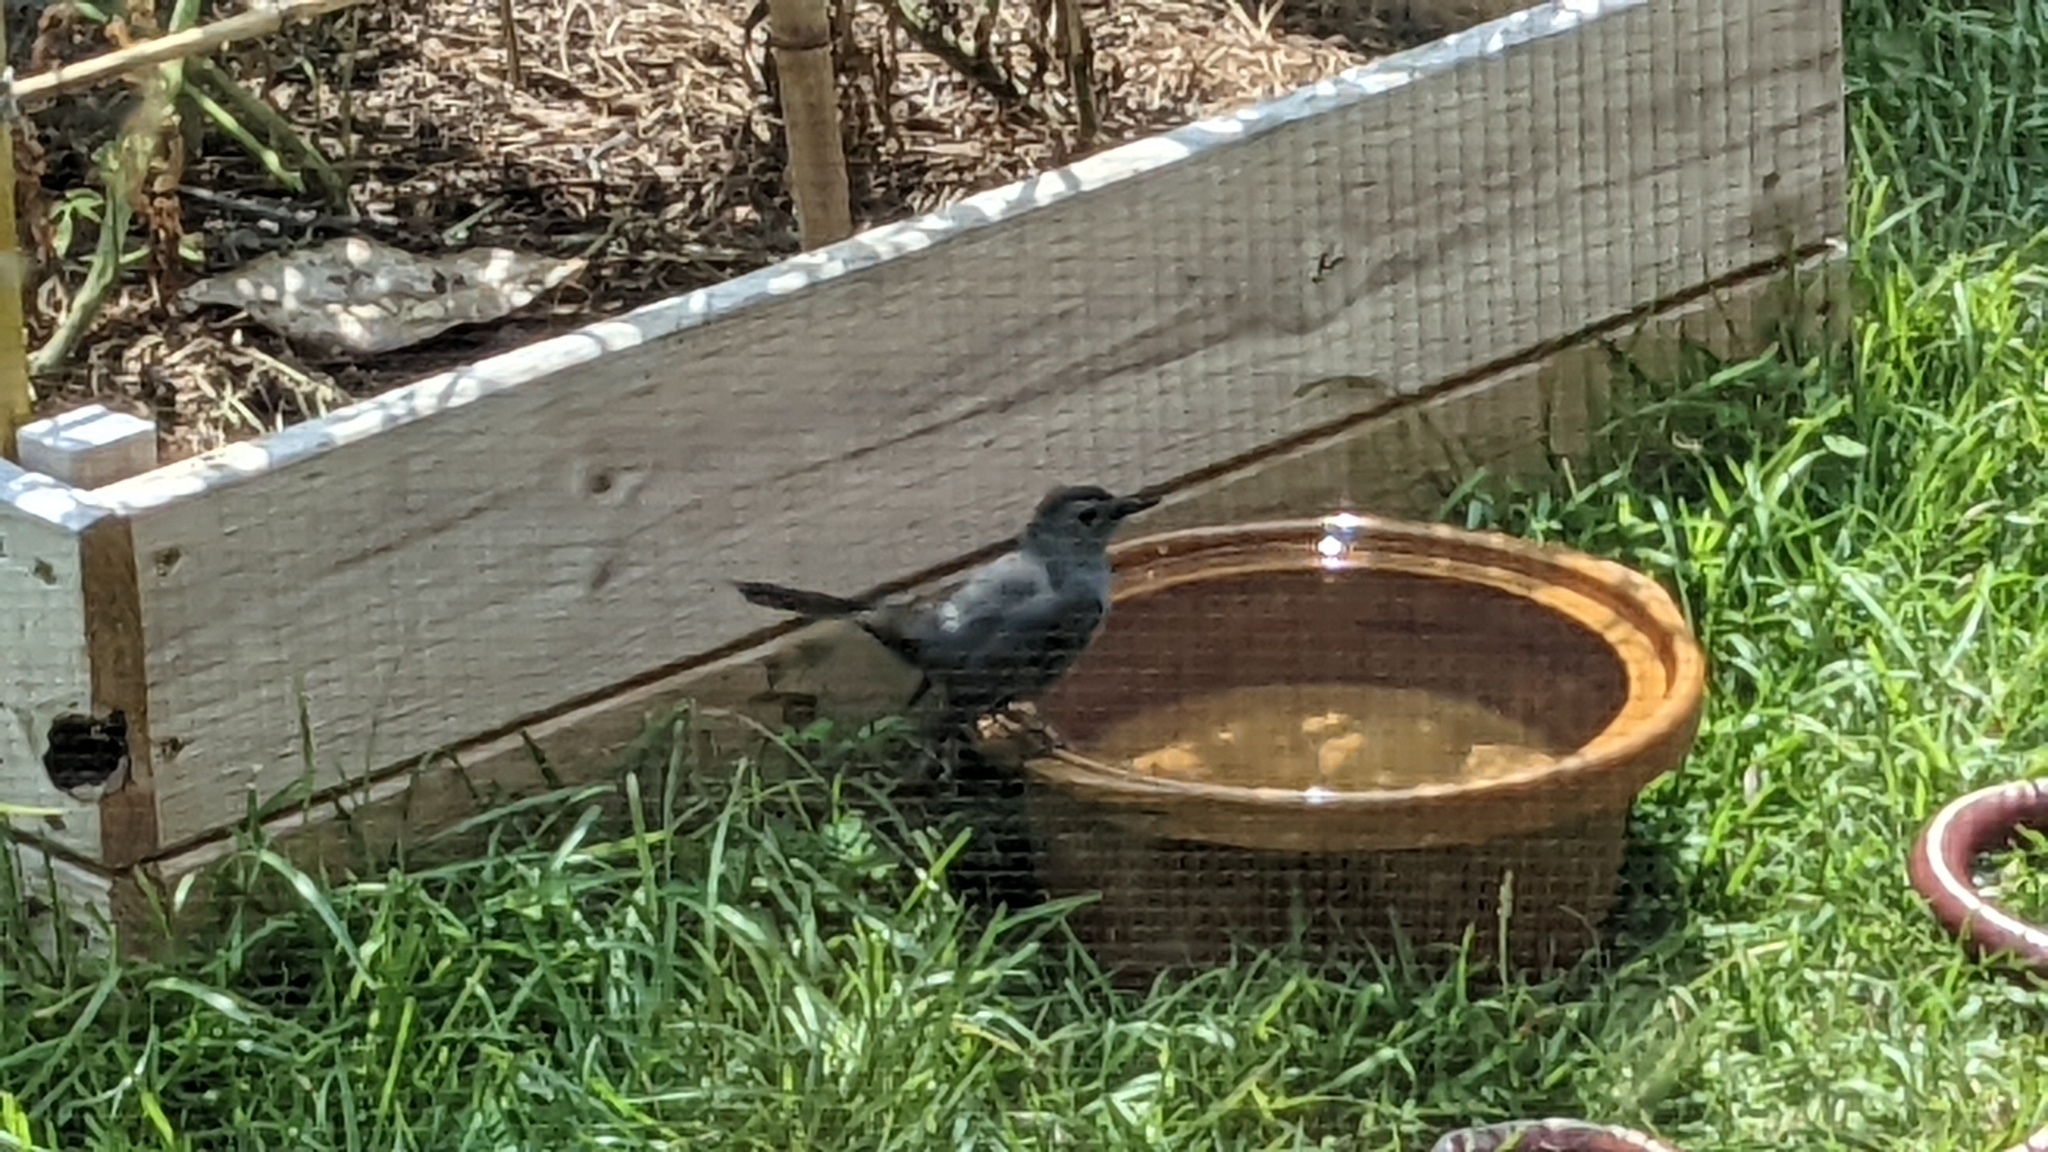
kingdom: Animalia
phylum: Chordata
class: Aves
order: Passeriformes
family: Mimidae
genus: Dumetella
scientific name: Dumetella carolinensis
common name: Gray catbird
